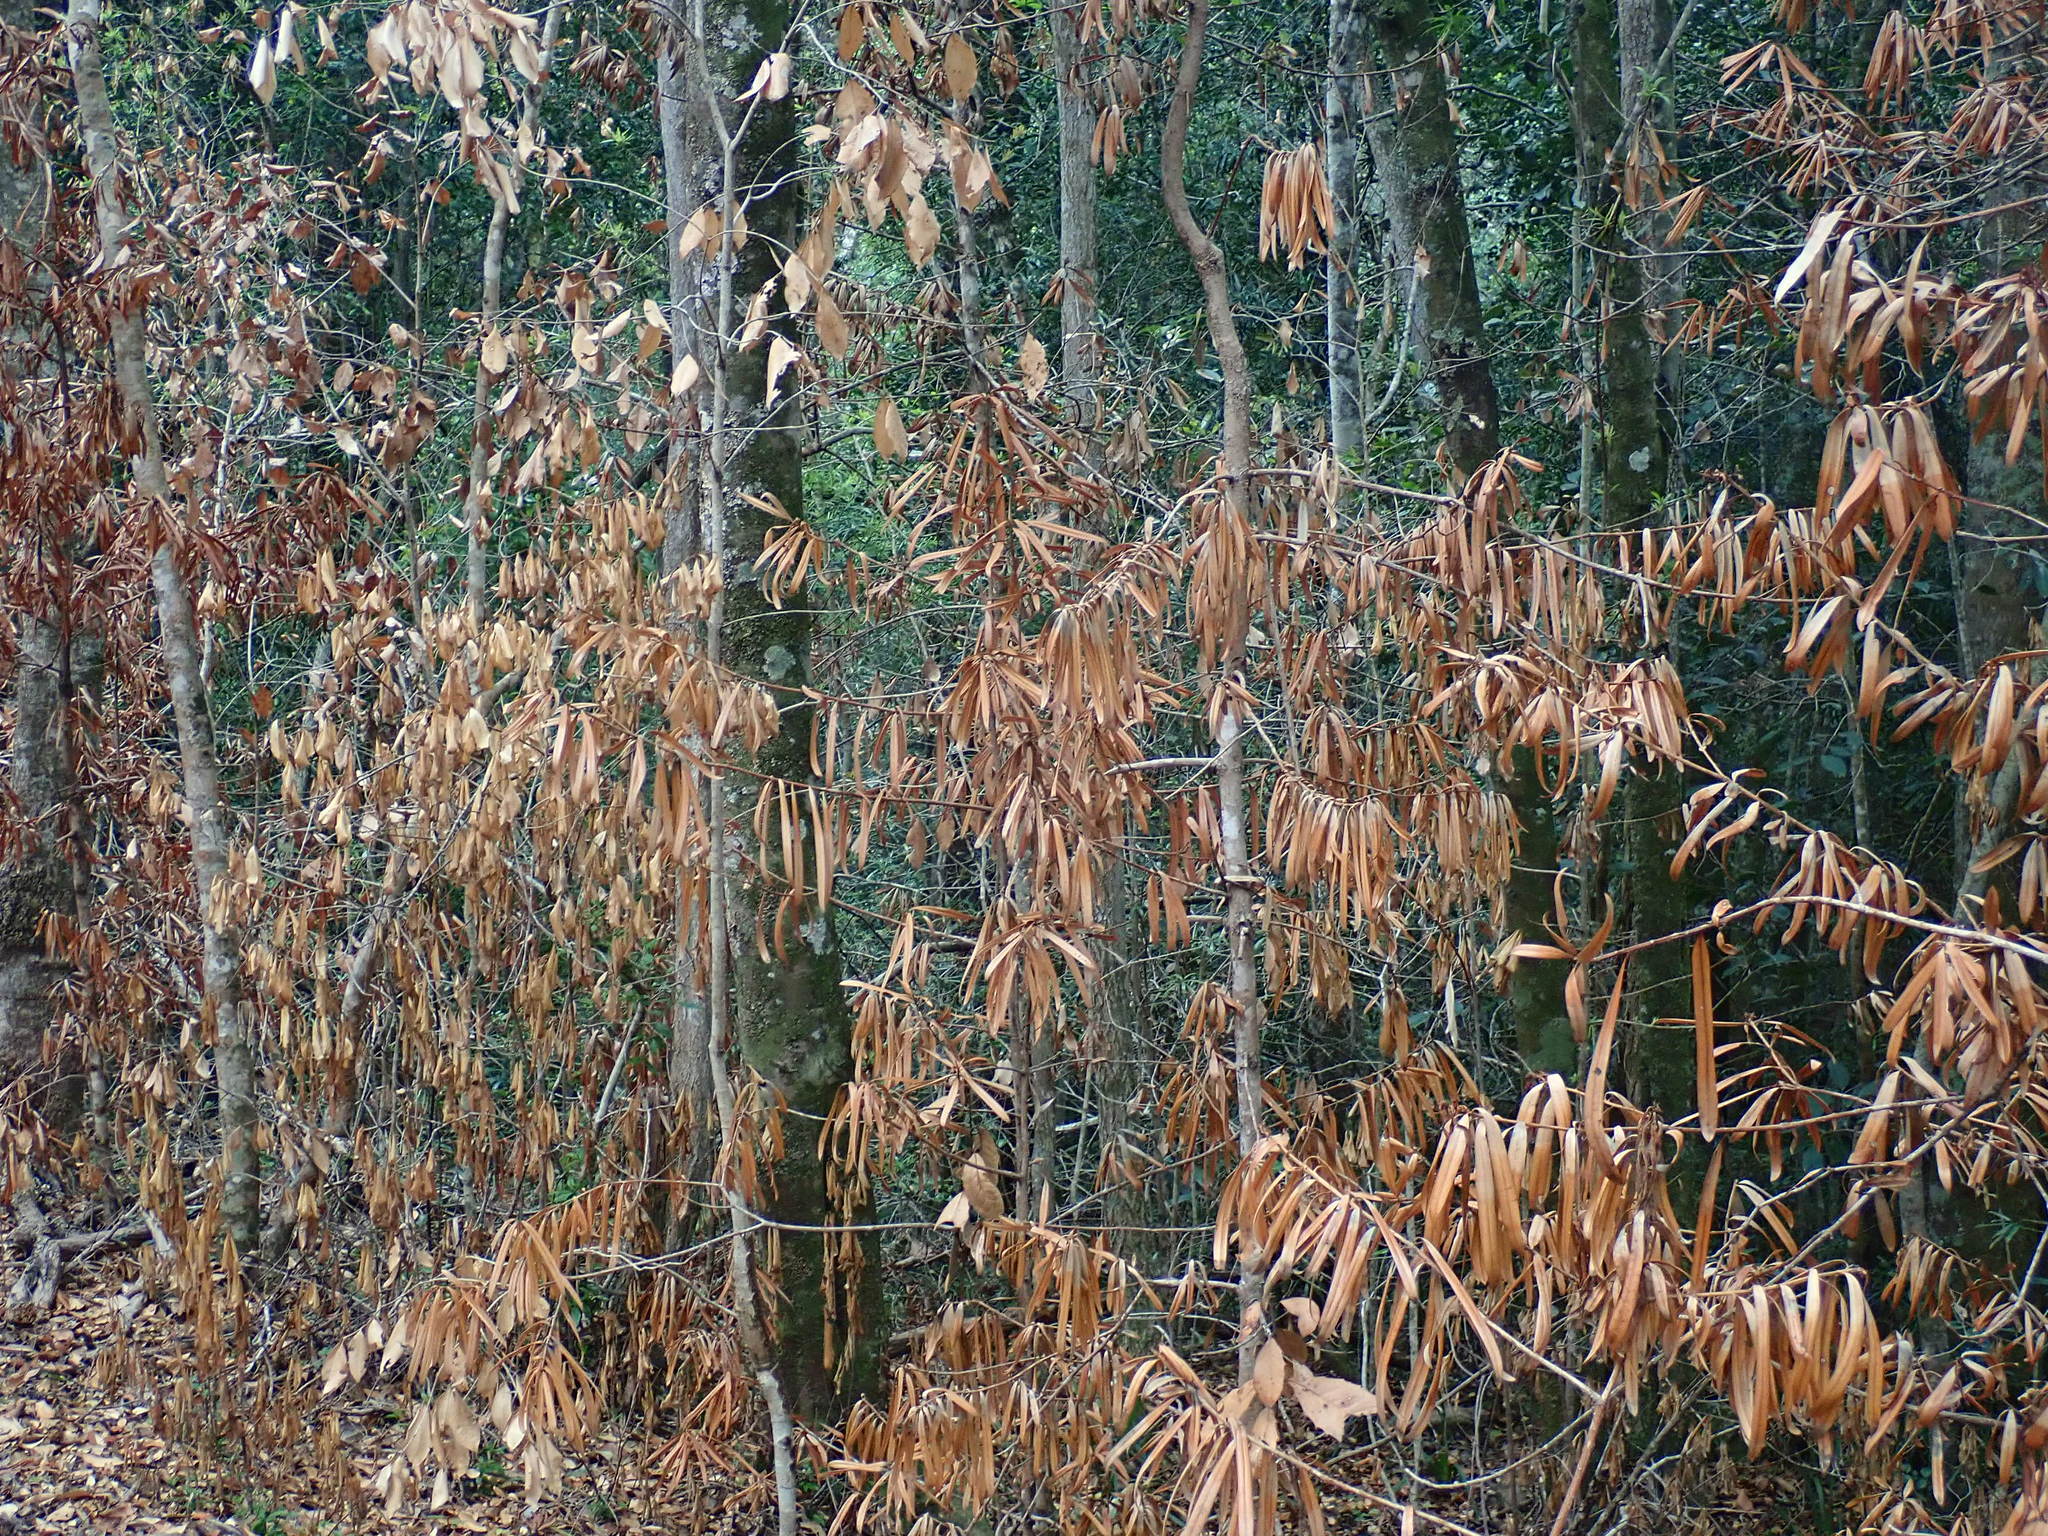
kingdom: Plantae
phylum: Tracheophyta
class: Pinopsida
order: Pinales
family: Podocarpaceae
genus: Podocarpus
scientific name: Podocarpus latifolius
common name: True yellowwood
